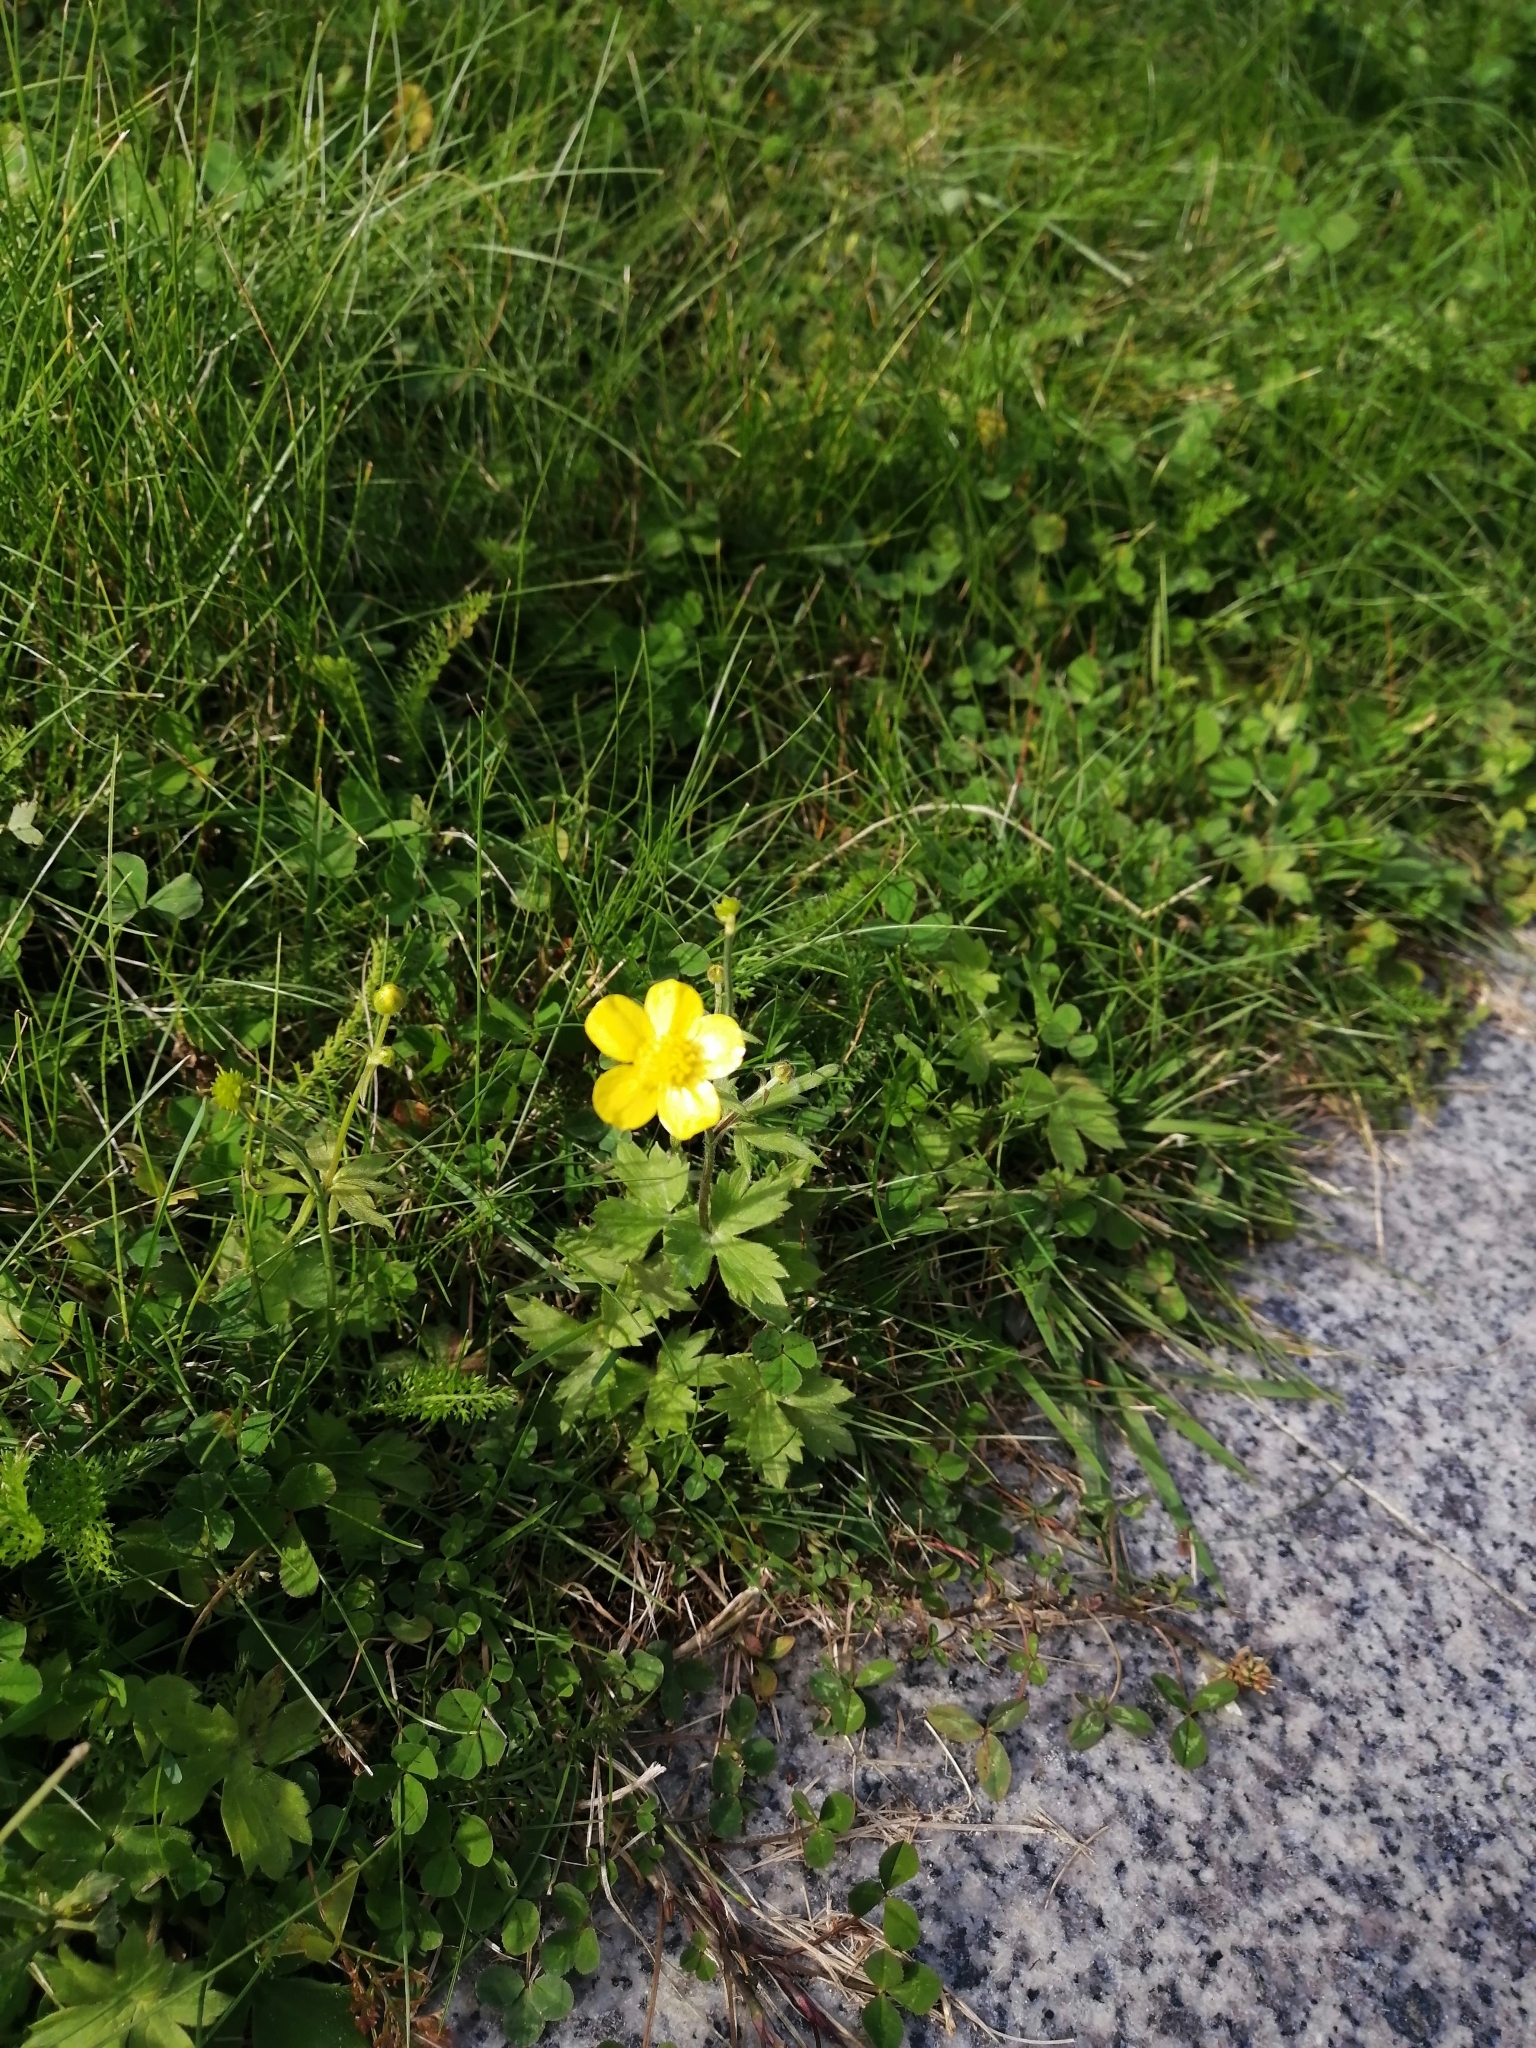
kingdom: Plantae
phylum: Tracheophyta
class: Magnoliopsida
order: Ranunculales
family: Ranunculaceae
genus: Ranunculus
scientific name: Ranunculus propinquus
